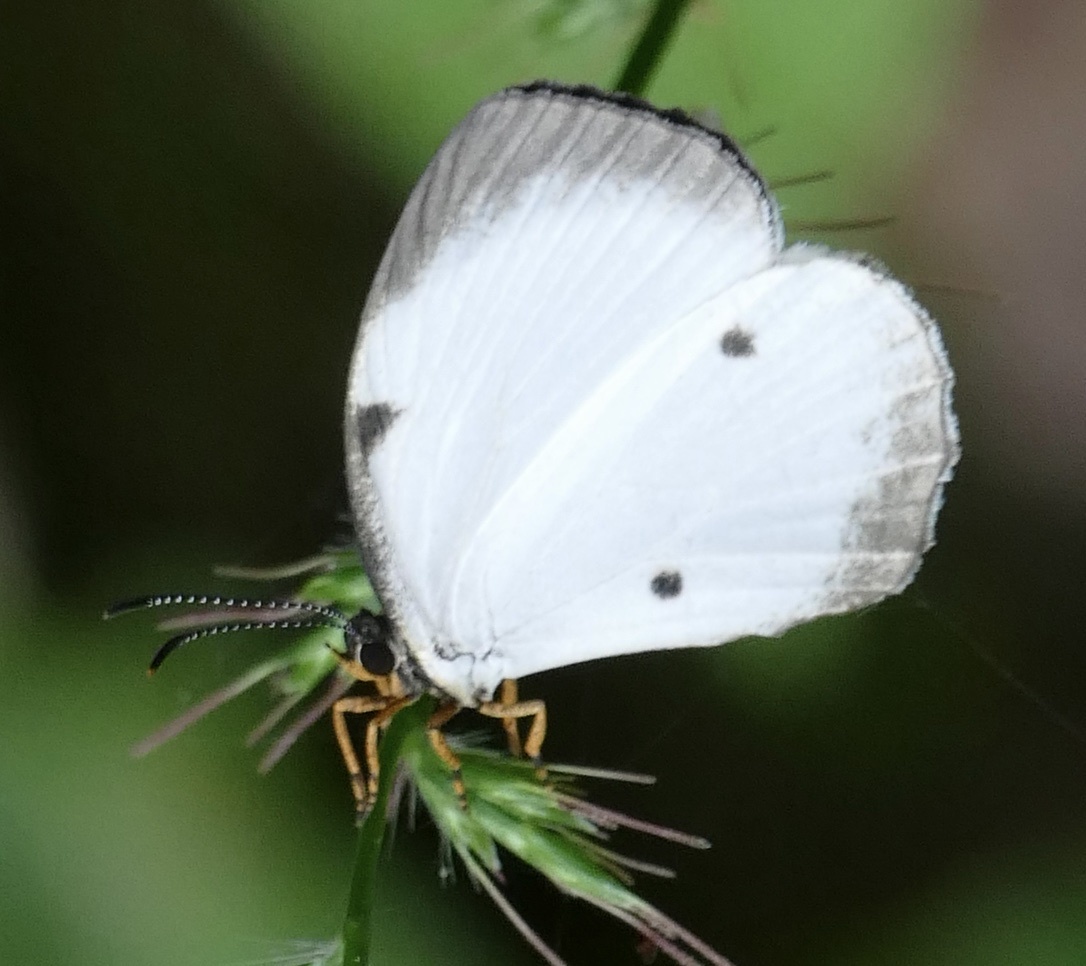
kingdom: Animalia
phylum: Arthropoda
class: Insecta
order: Lepidoptera
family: Lycaenidae
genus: Larinopoda
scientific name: Larinopoda aspidos
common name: Nigerian pierid blue
